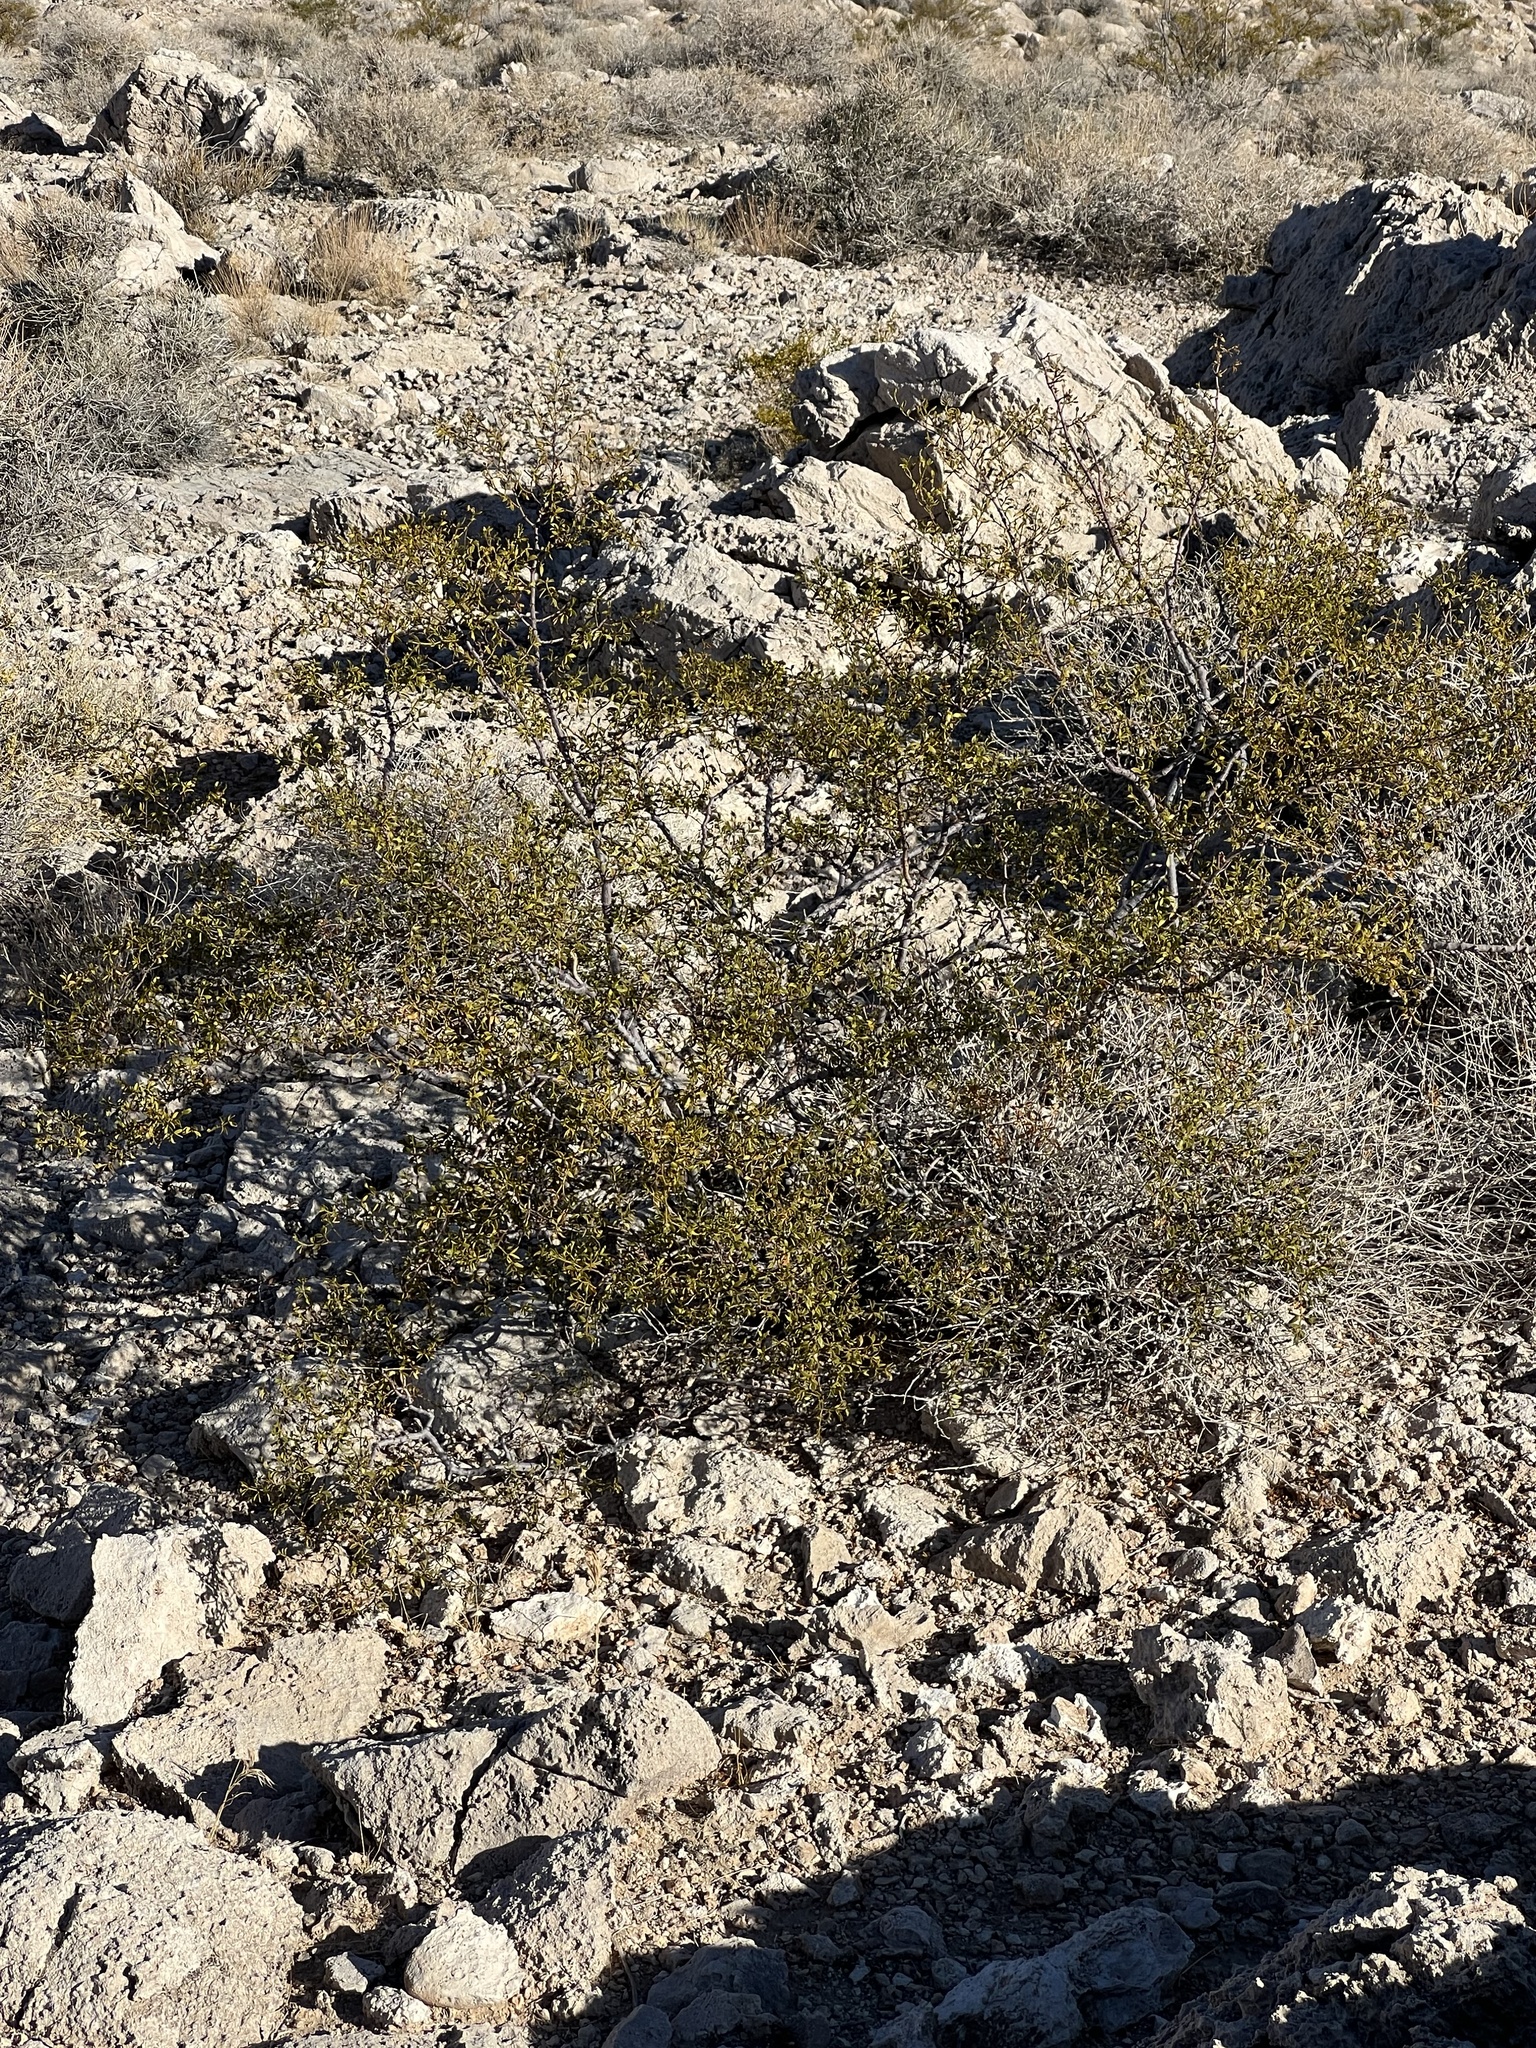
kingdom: Plantae
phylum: Tracheophyta
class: Magnoliopsida
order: Zygophyllales
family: Zygophyllaceae
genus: Larrea
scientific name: Larrea tridentata
